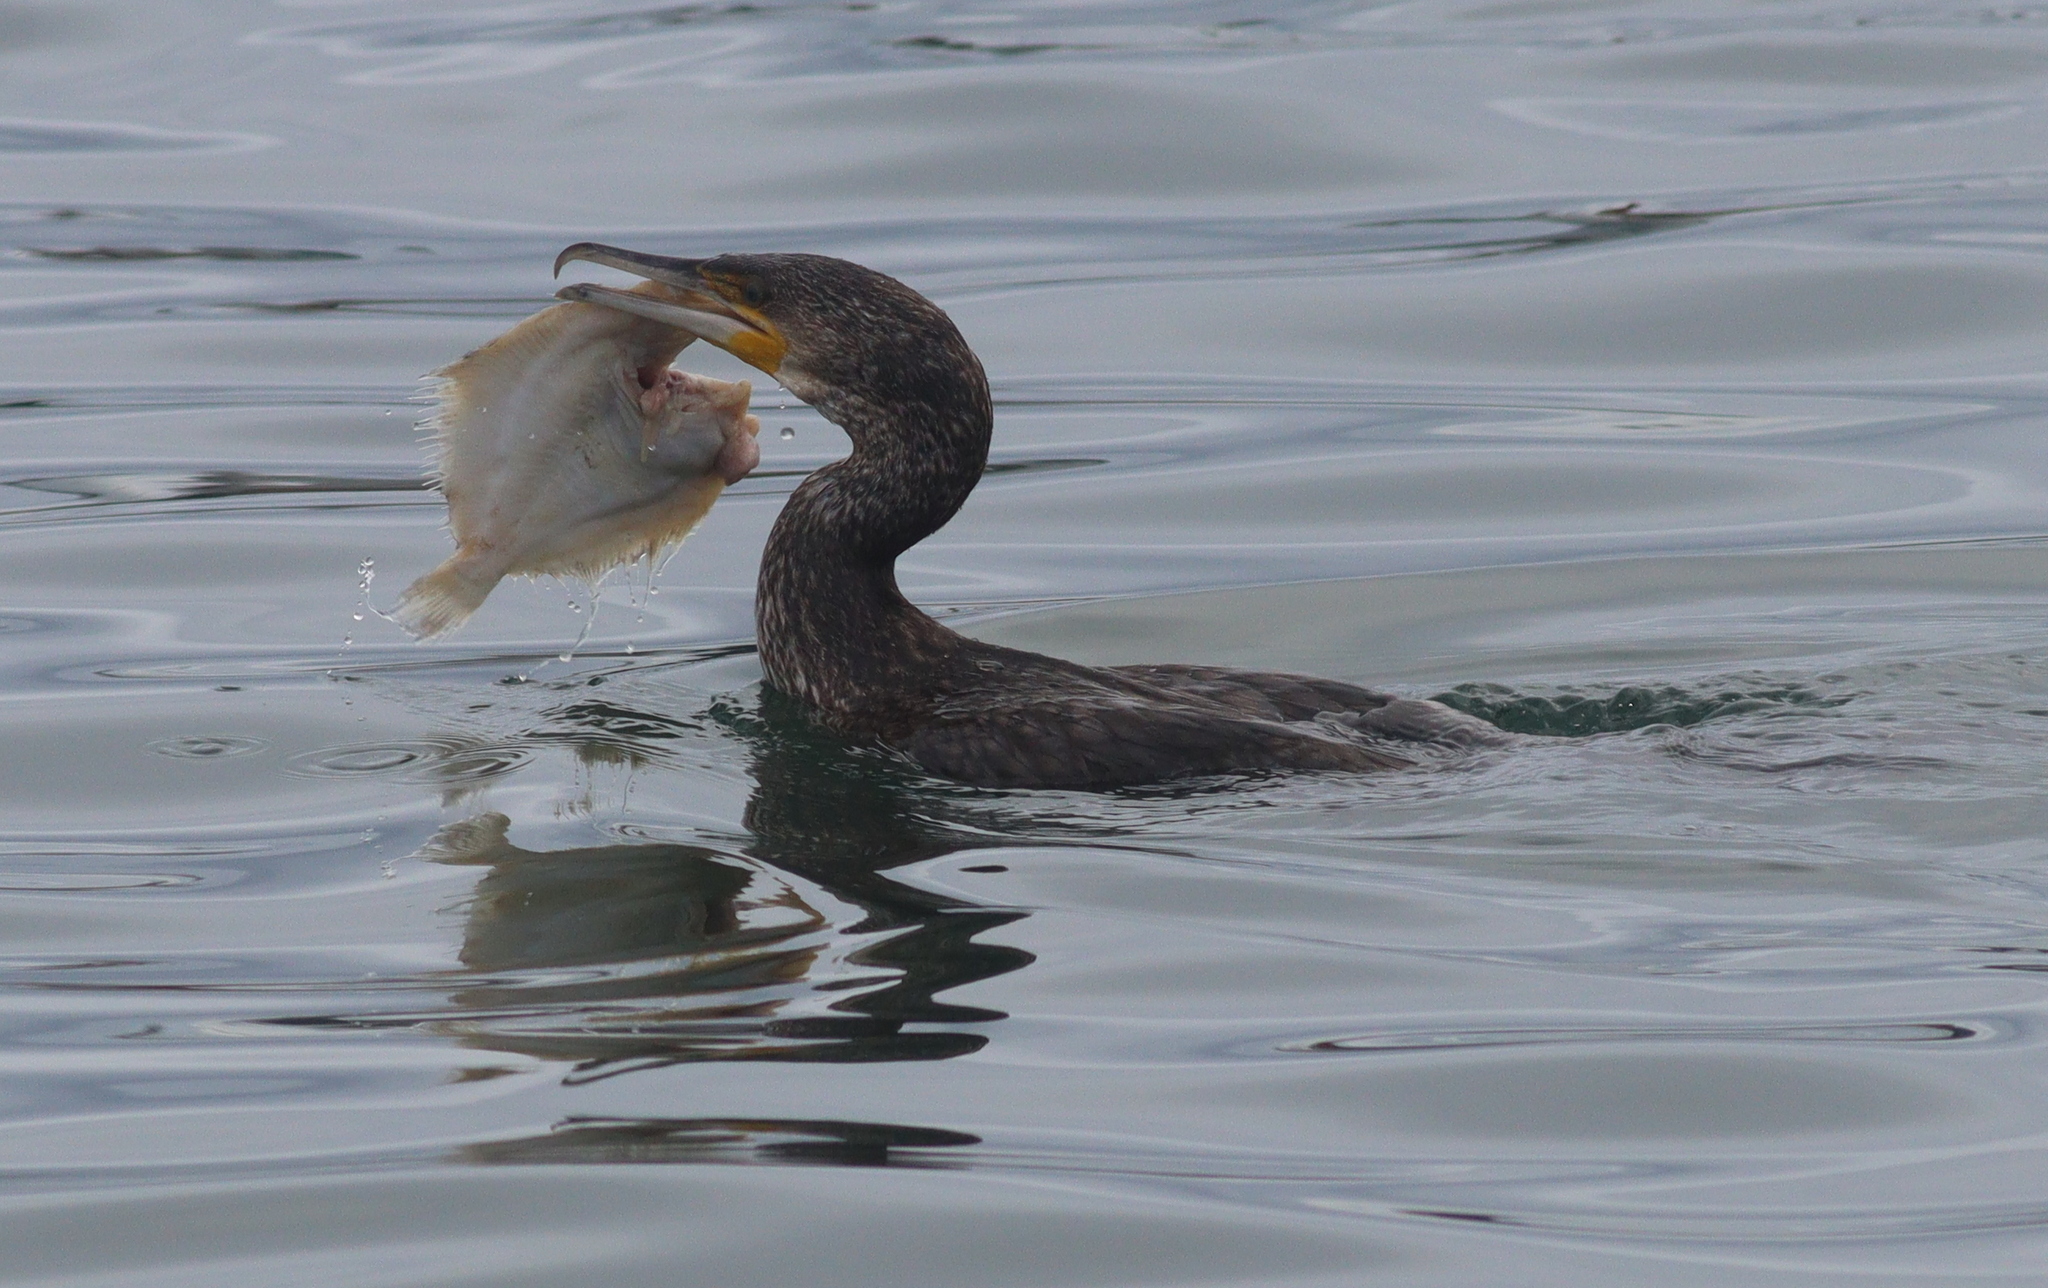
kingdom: Animalia
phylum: Chordata
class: Aves
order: Suliformes
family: Phalacrocoracidae
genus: Phalacrocorax
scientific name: Phalacrocorax carbo
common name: Great cormorant
